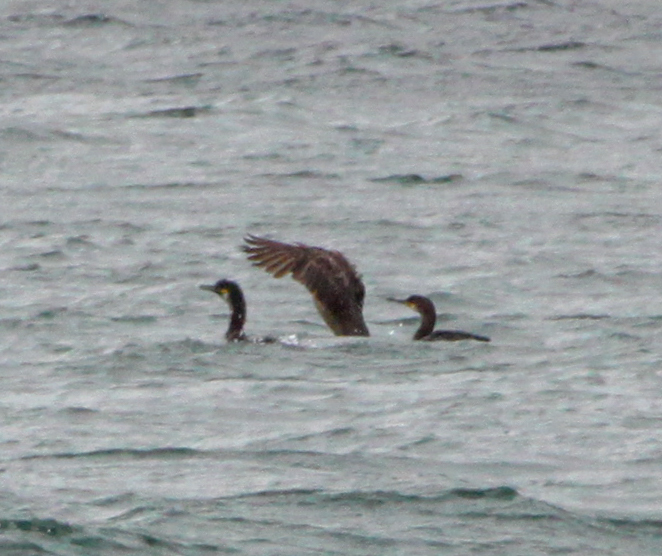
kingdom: Animalia
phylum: Chordata
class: Aves
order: Suliformes
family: Phalacrocoracidae
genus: Phalacrocorax
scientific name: Phalacrocorax aristotelis
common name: European shag
